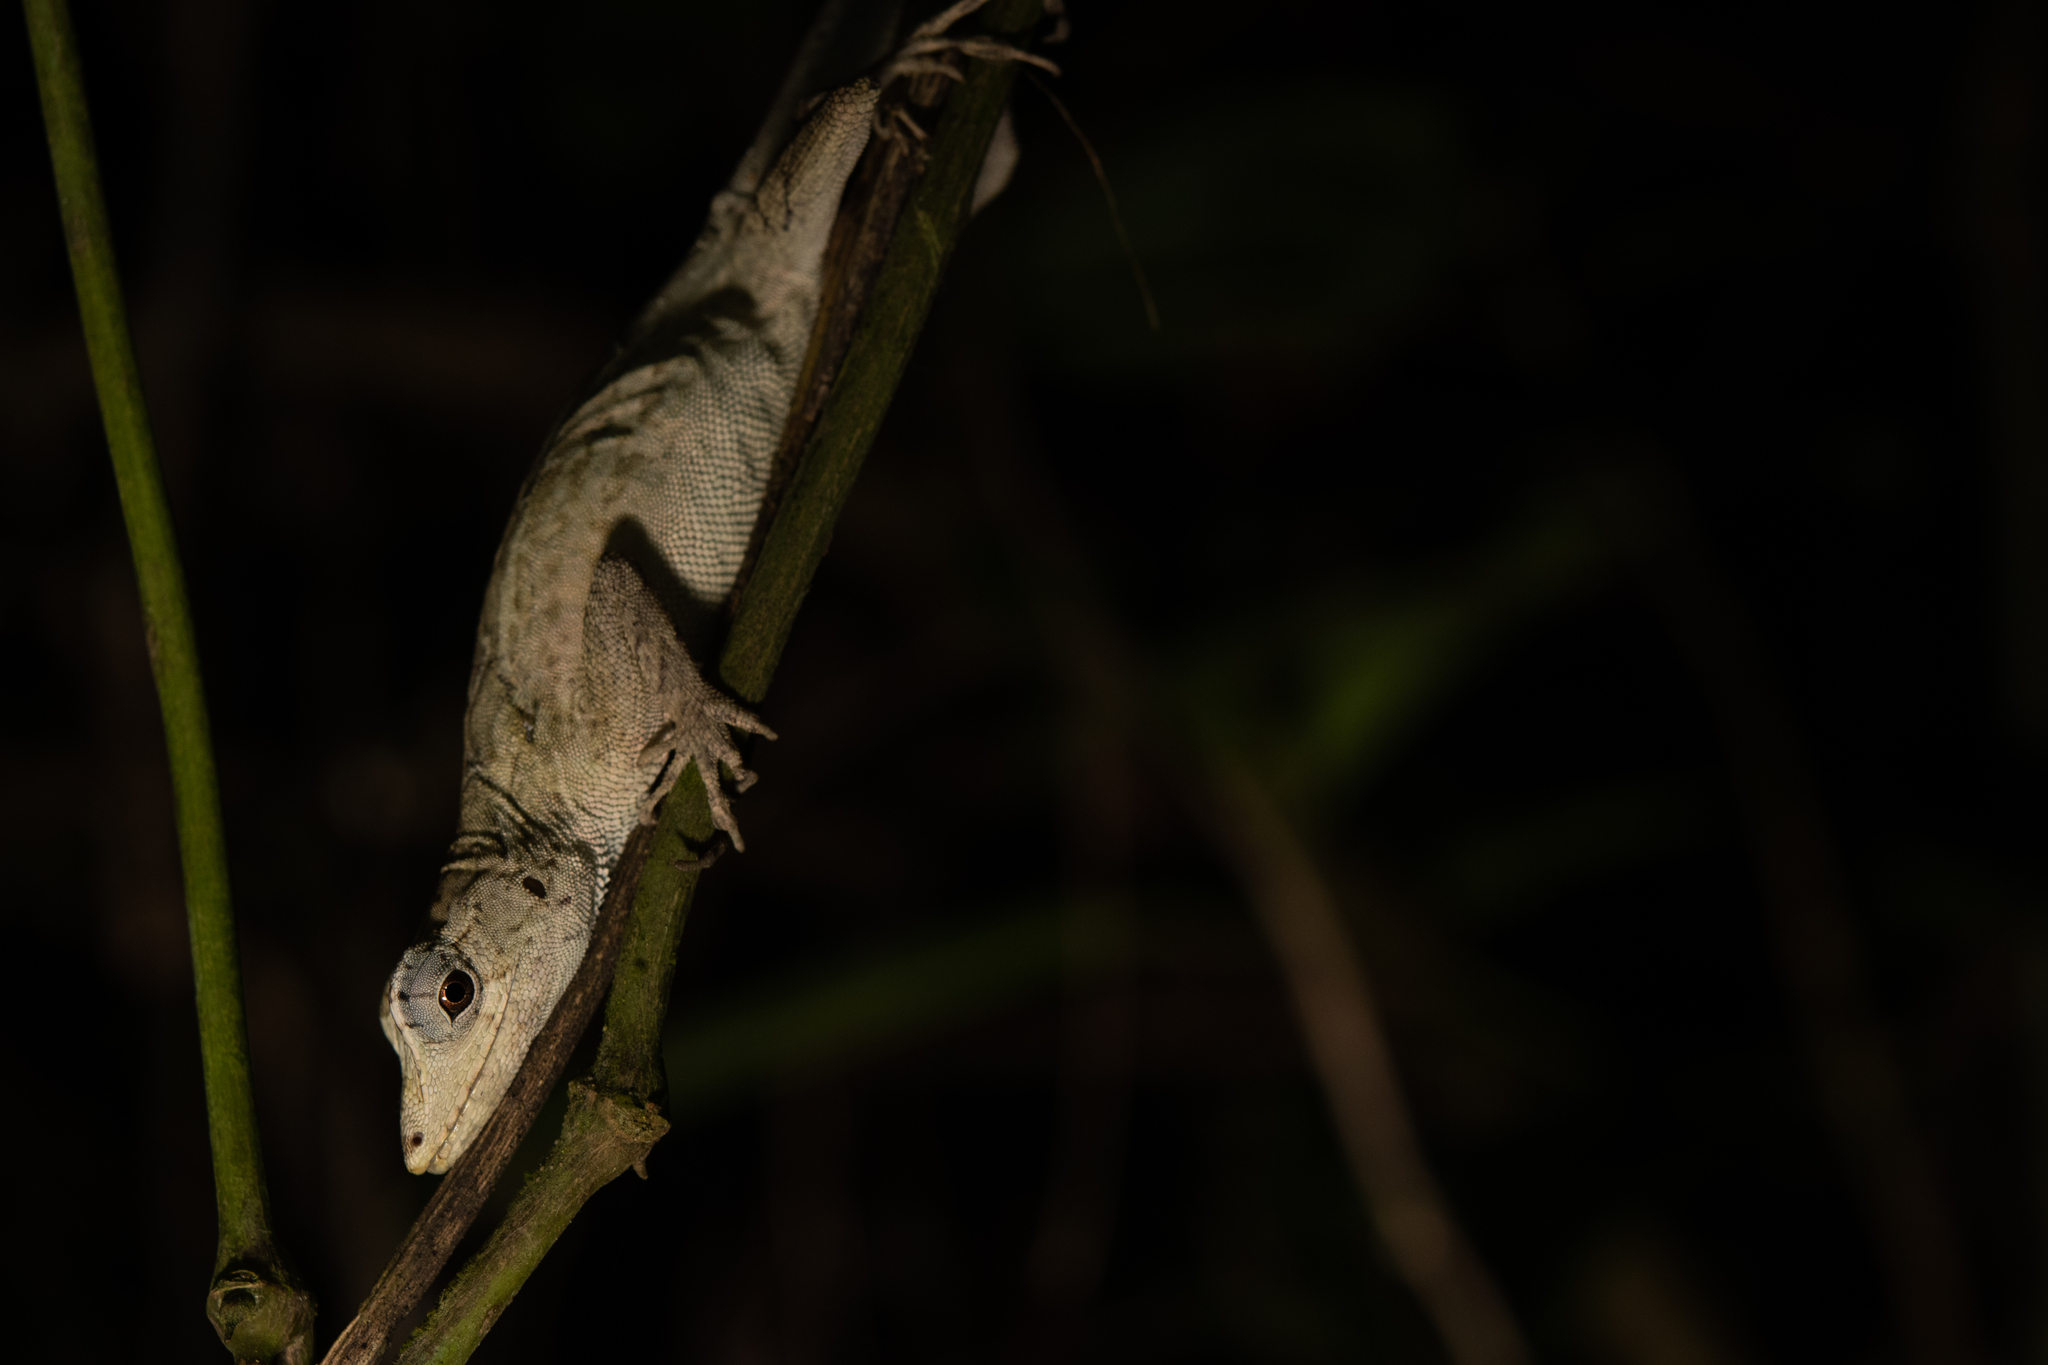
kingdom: Animalia
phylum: Chordata
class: Squamata
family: Dactyloidae
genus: Anolis
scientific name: Anolis lemurinus
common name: Ghost anole
